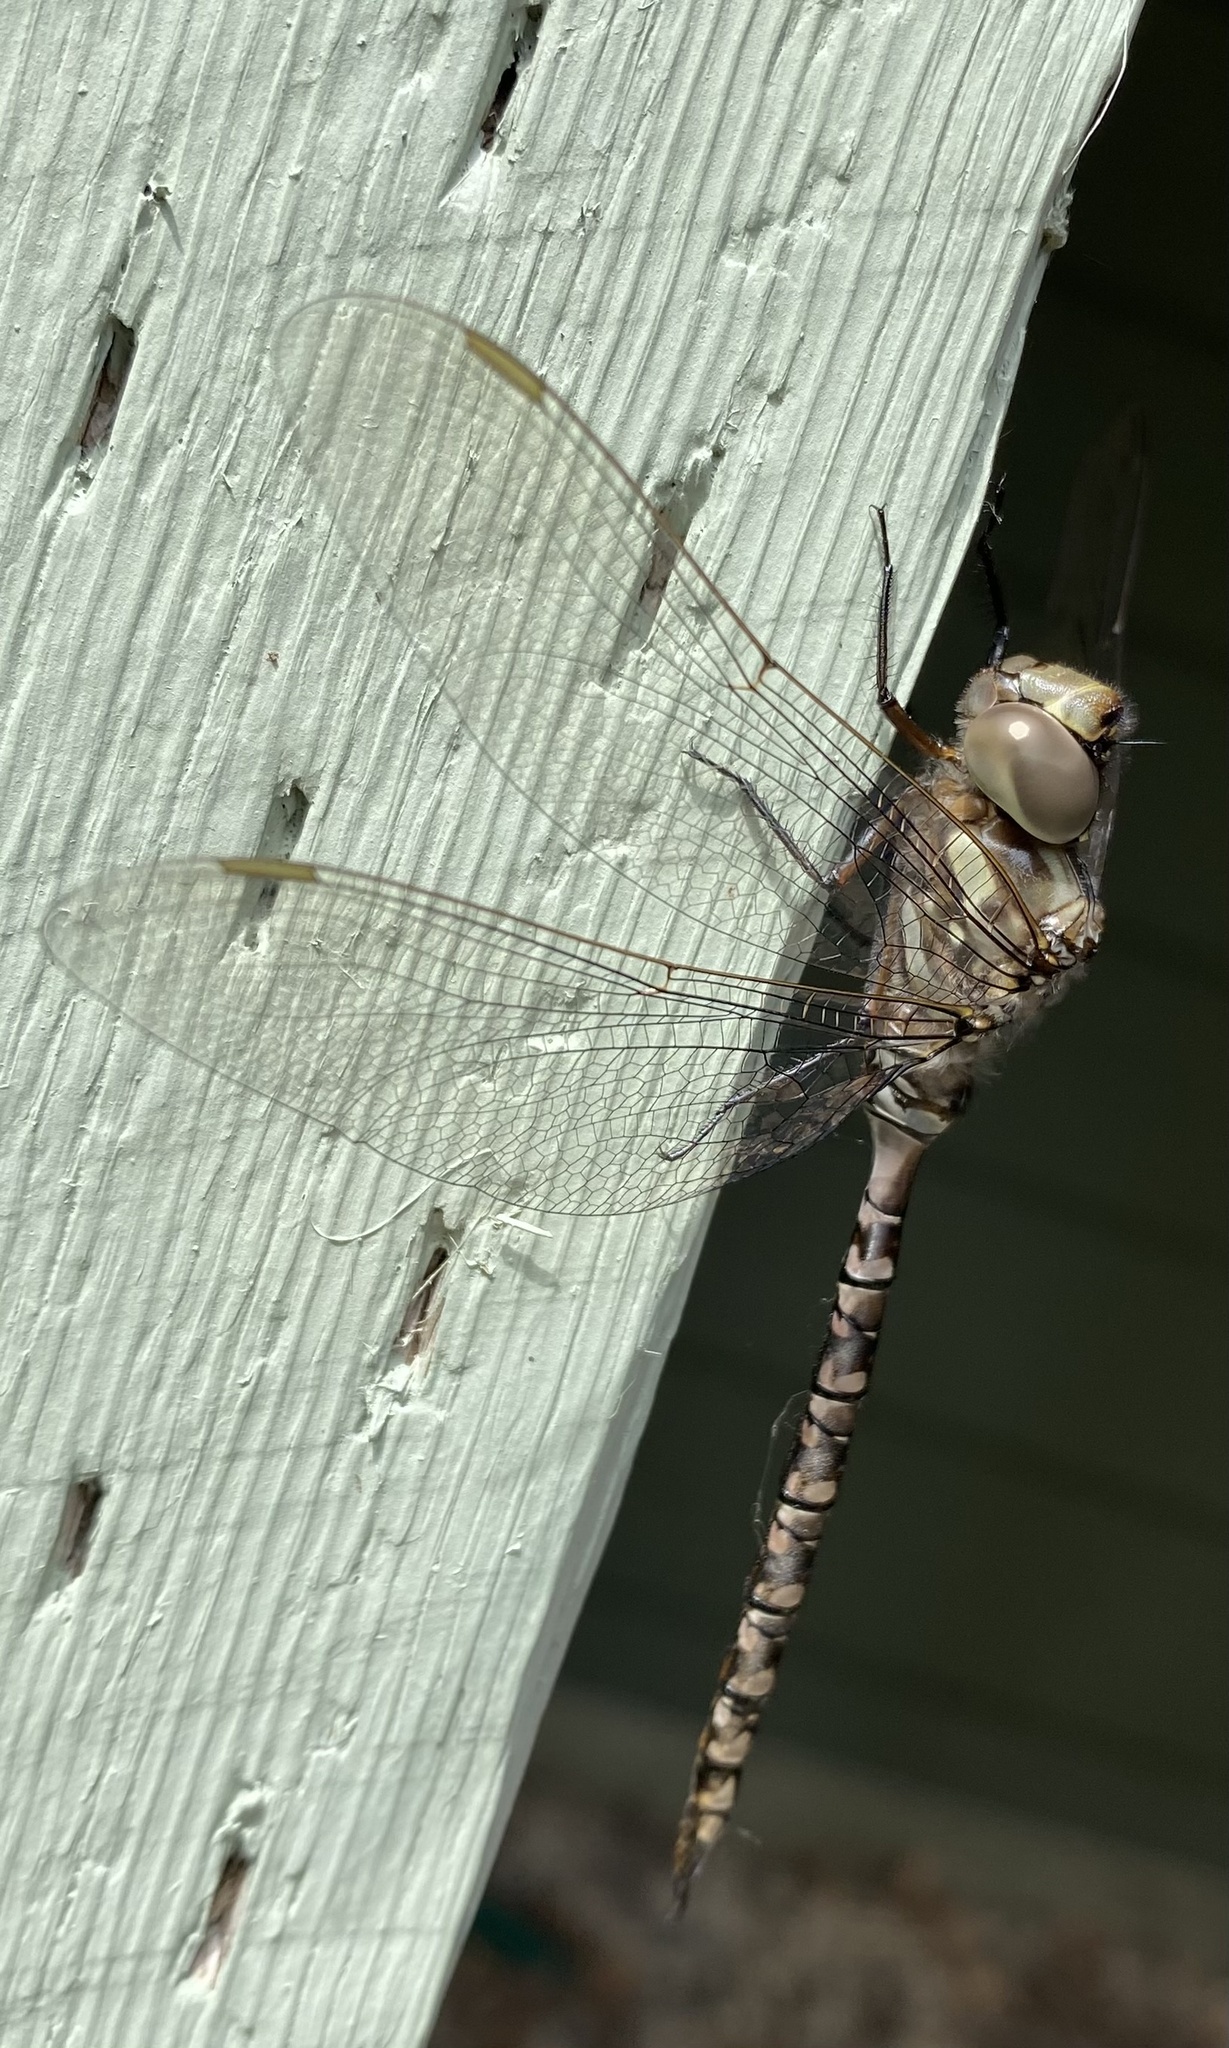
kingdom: Animalia
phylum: Arthropoda
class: Insecta
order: Odonata
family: Aeshnidae
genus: Aeshna
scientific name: Aeshna canadensis
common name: Canada darner
